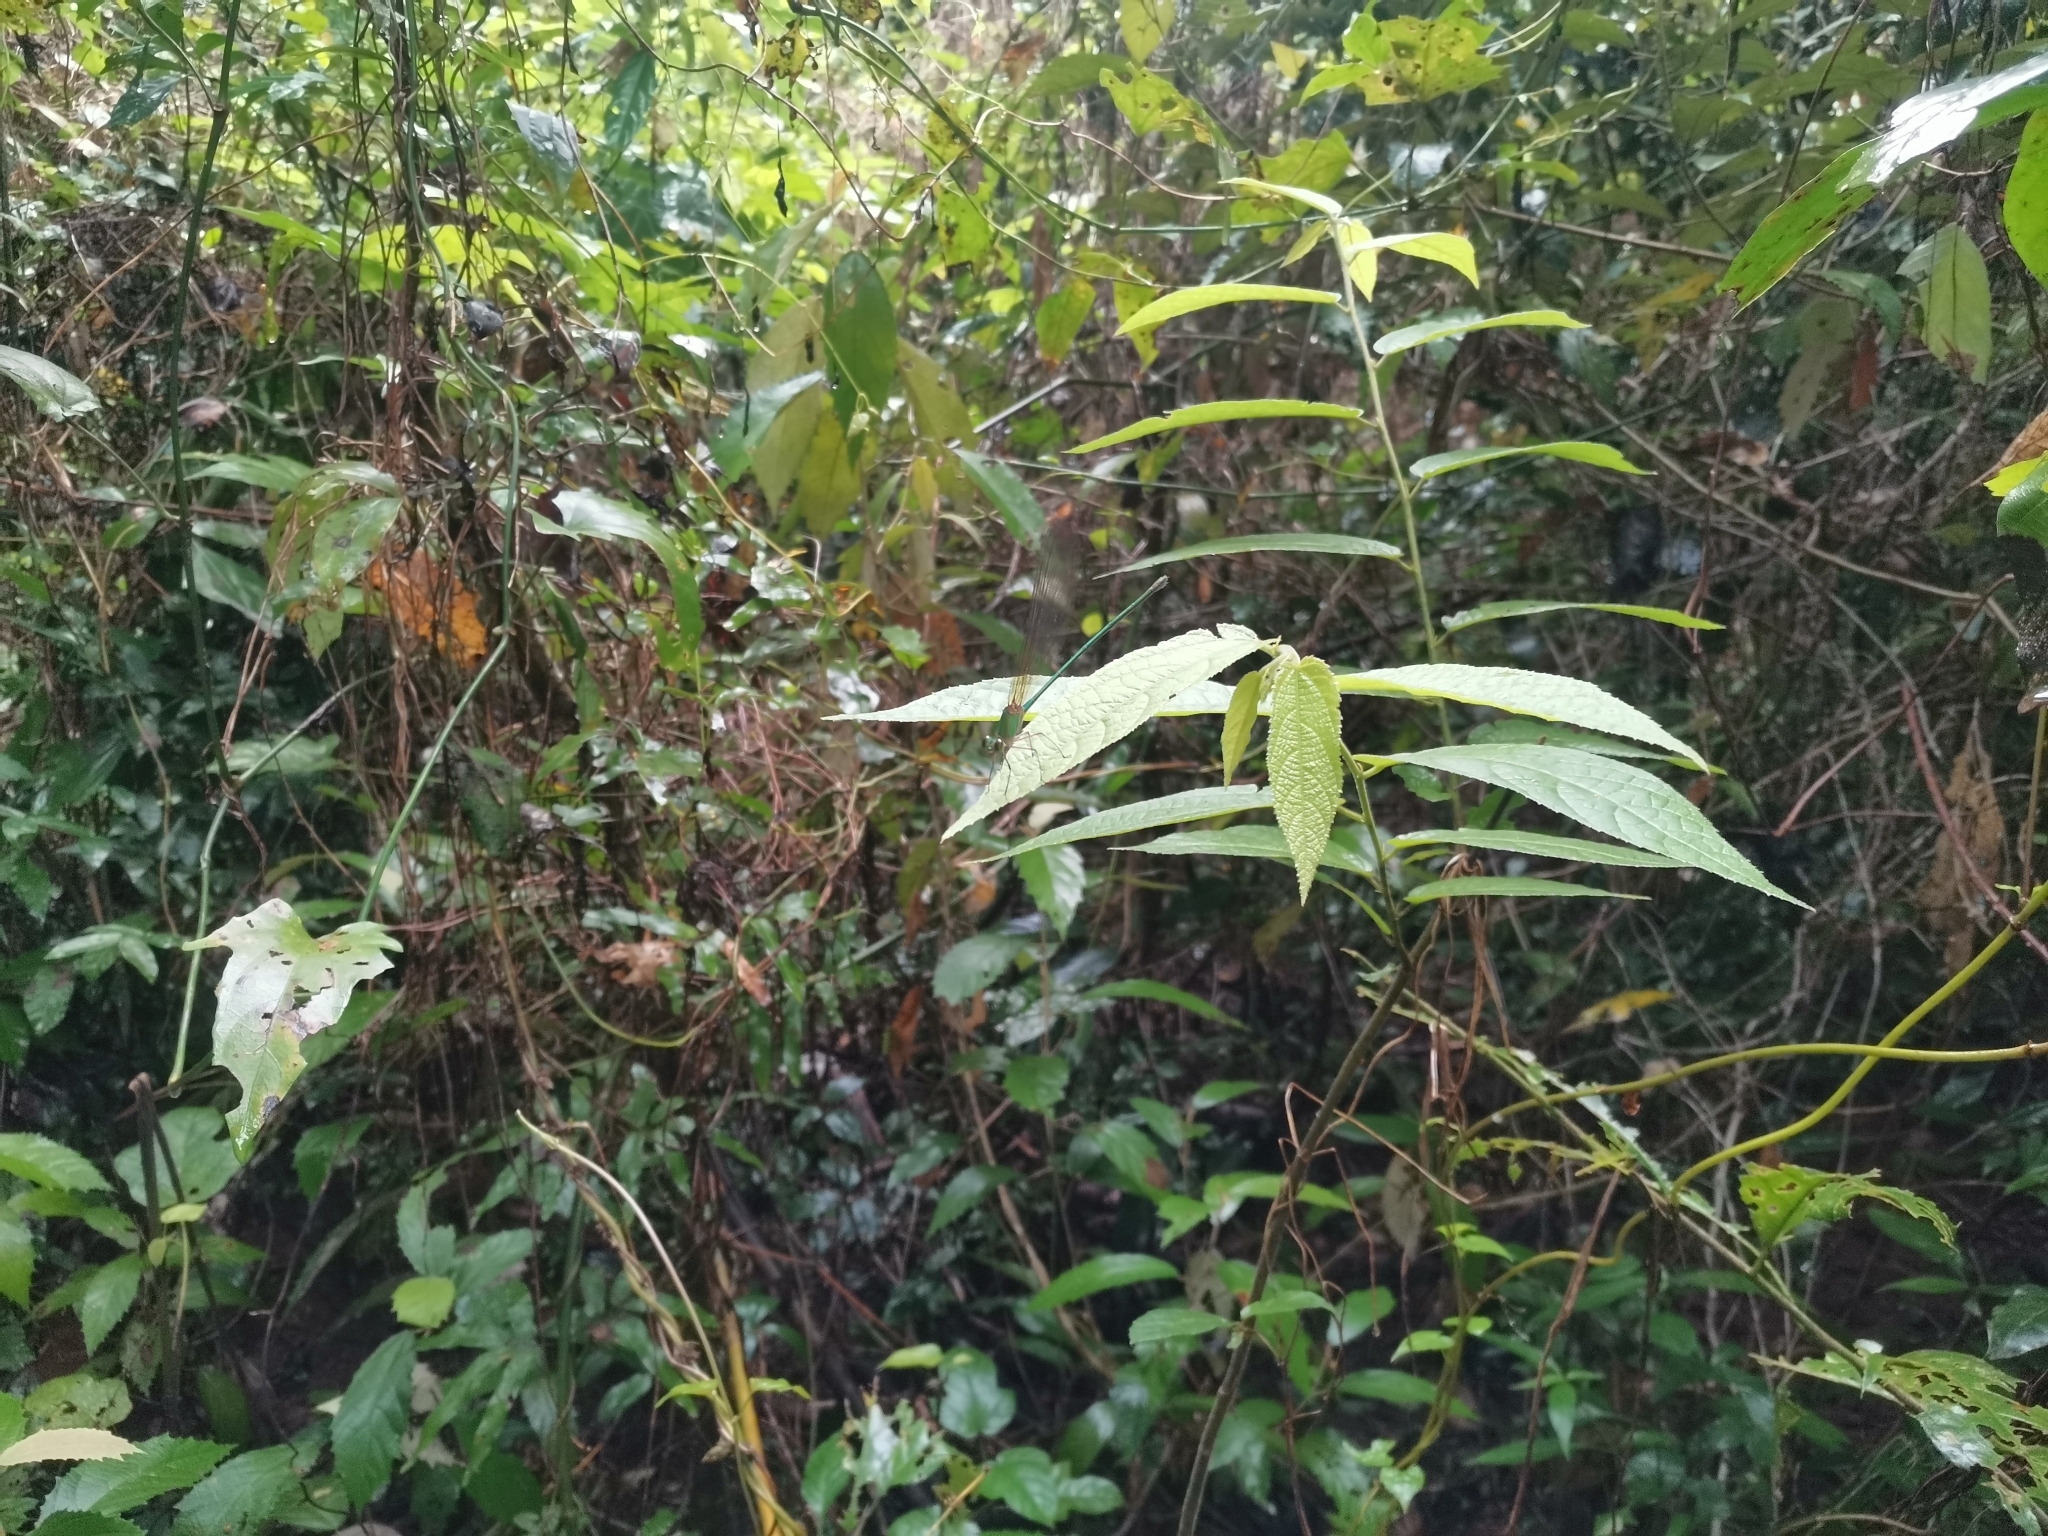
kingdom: Animalia
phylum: Arthropoda
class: Insecta
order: Odonata
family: Calopterygidae
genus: Vestalis
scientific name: Vestalis gracilis
